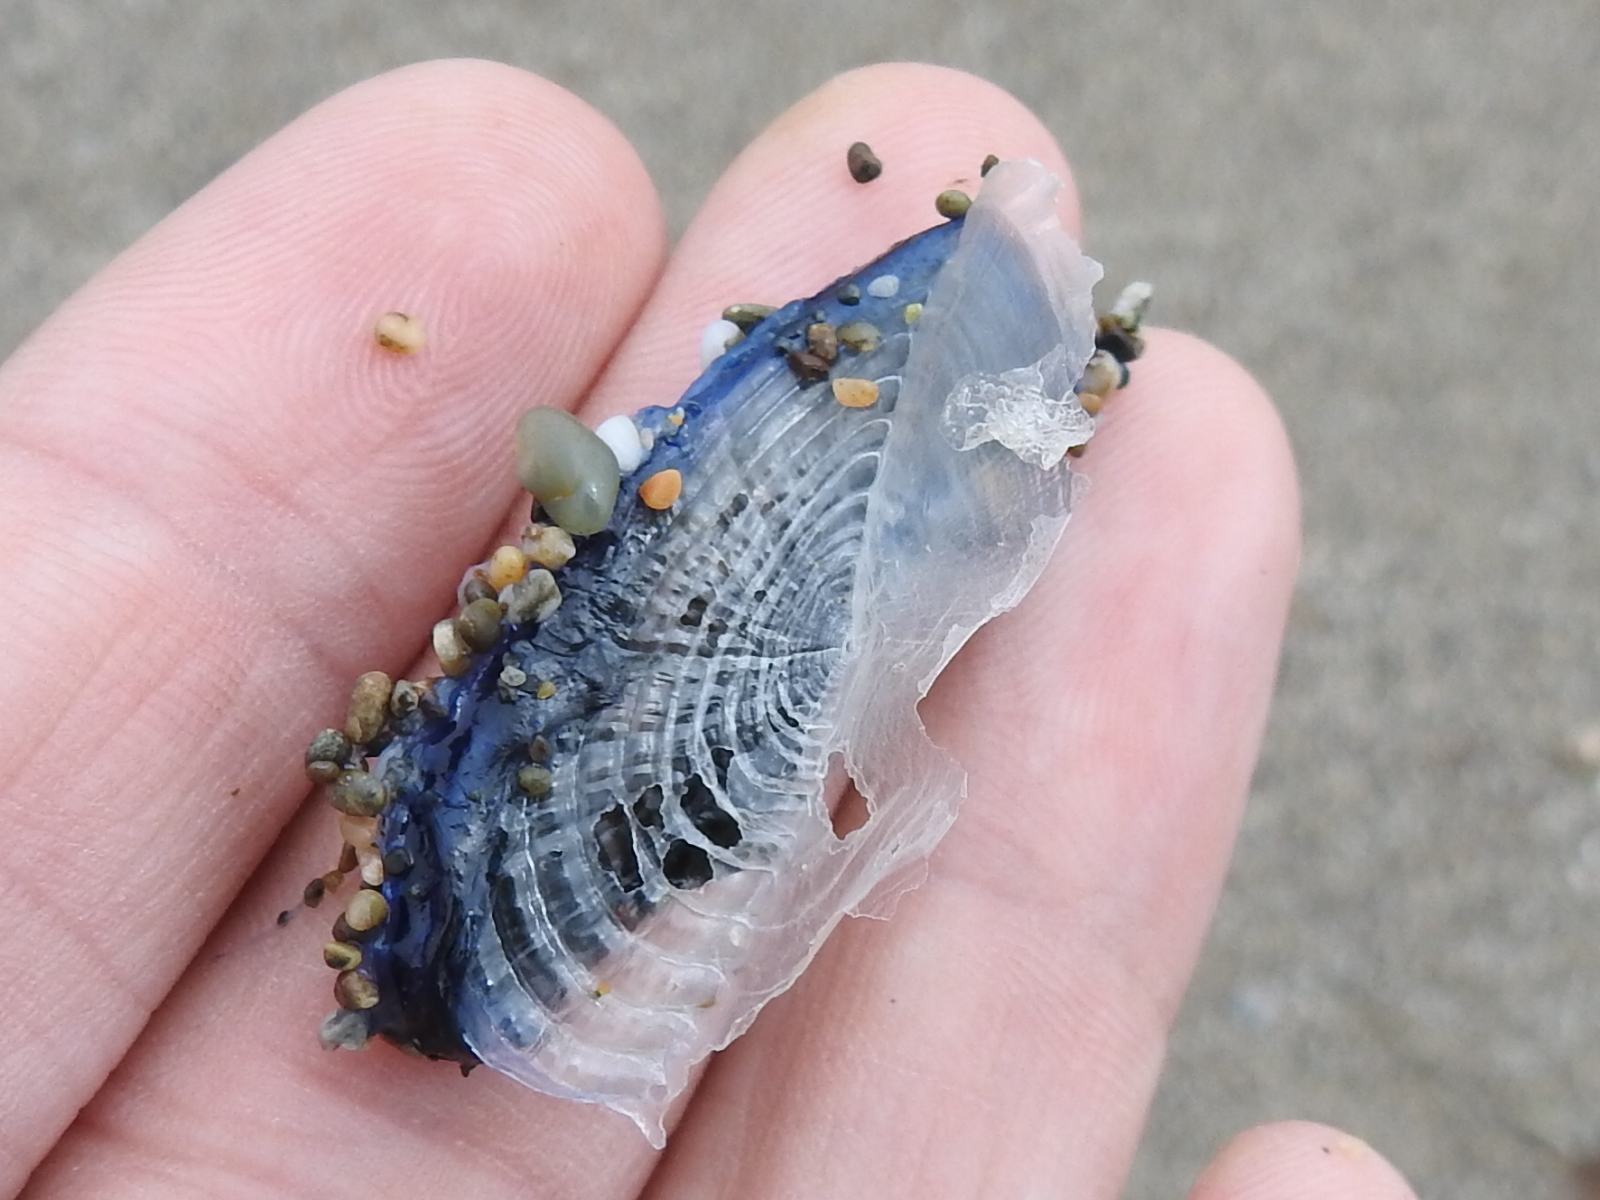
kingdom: Animalia
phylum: Cnidaria
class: Hydrozoa
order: Anthoathecata
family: Porpitidae
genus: Velella
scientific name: Velella velella
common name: By-the-wind-sailor
